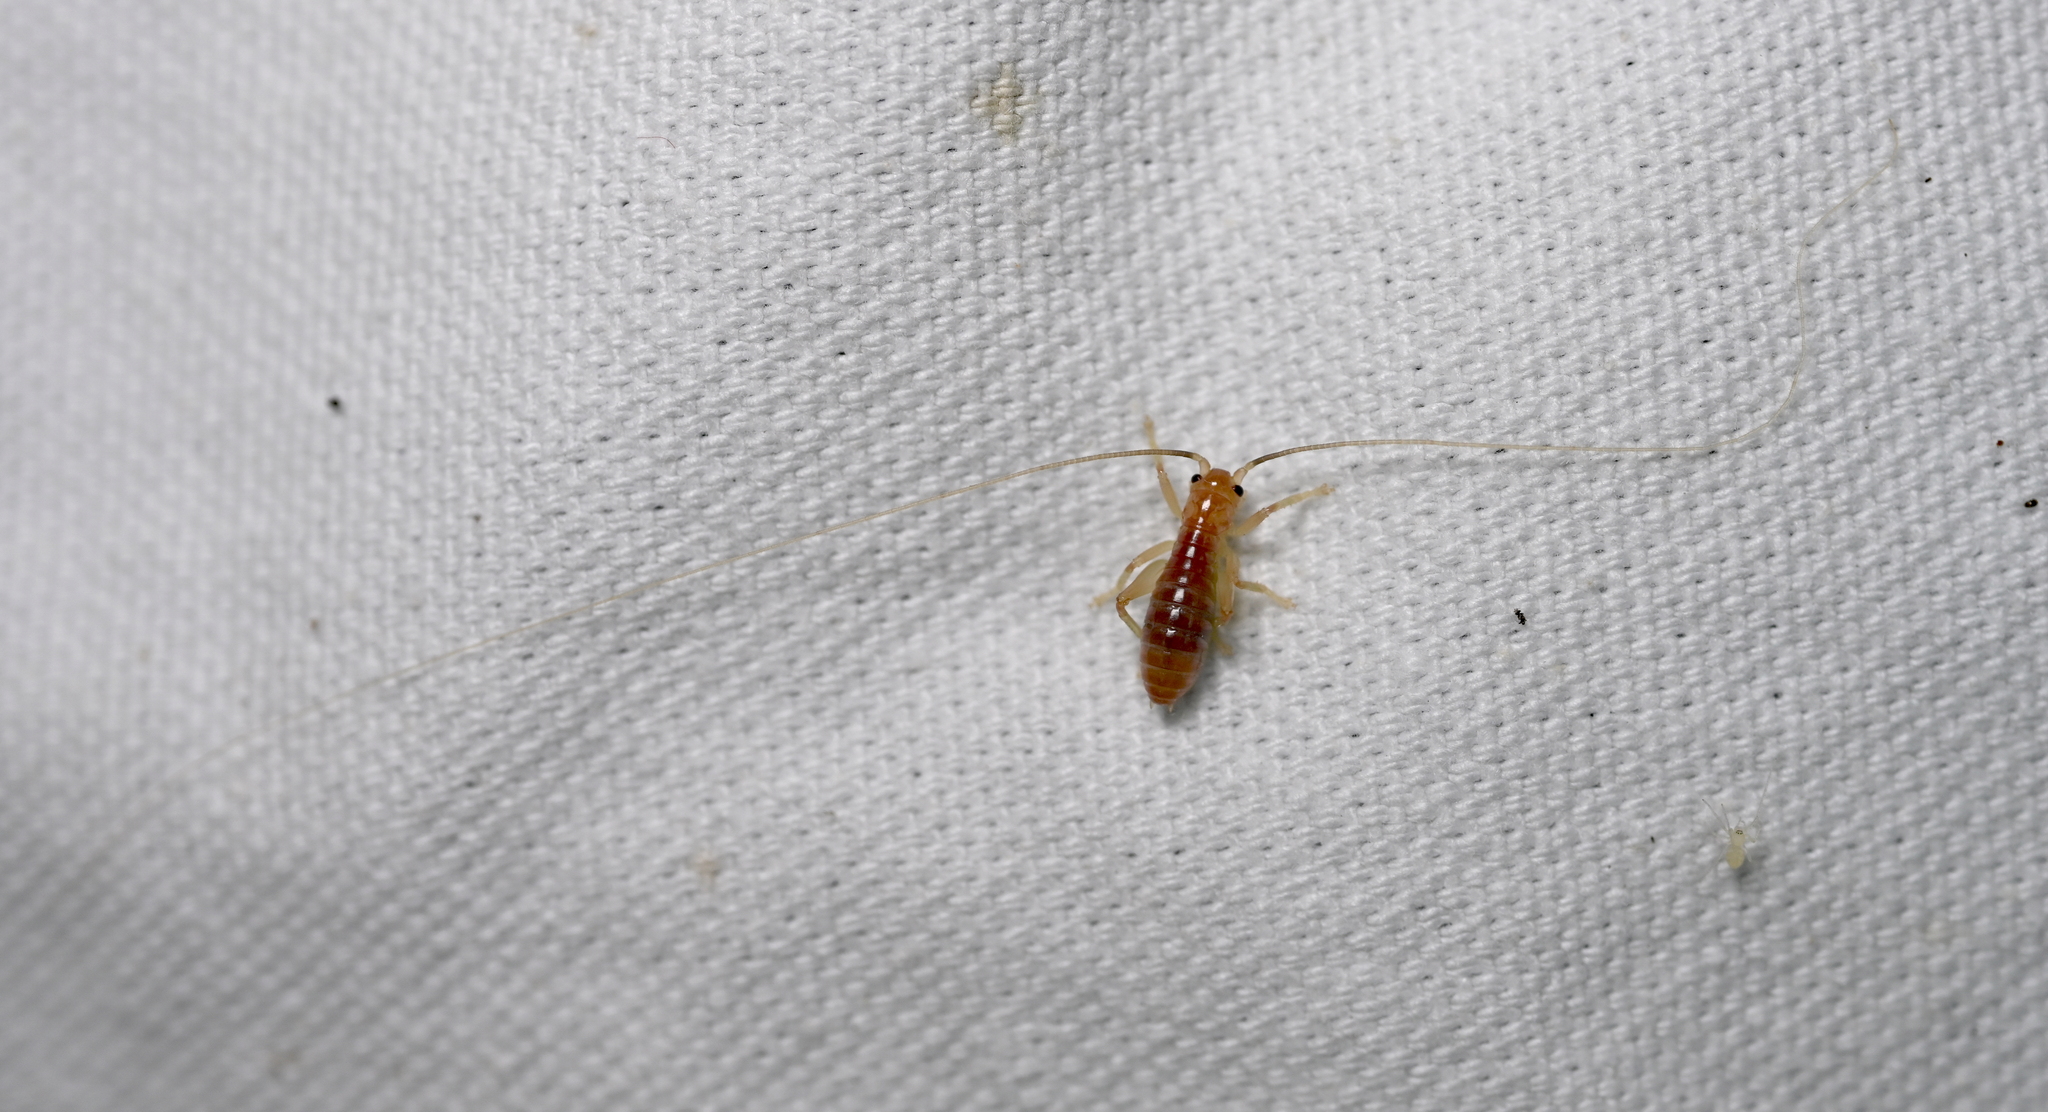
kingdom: Animalia
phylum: Arthropoda
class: Insecta
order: Orthoptera
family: Gryllacrididae
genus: Camptonotus
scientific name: Camptonotus carolinensis
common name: Carolina leaf-roller
